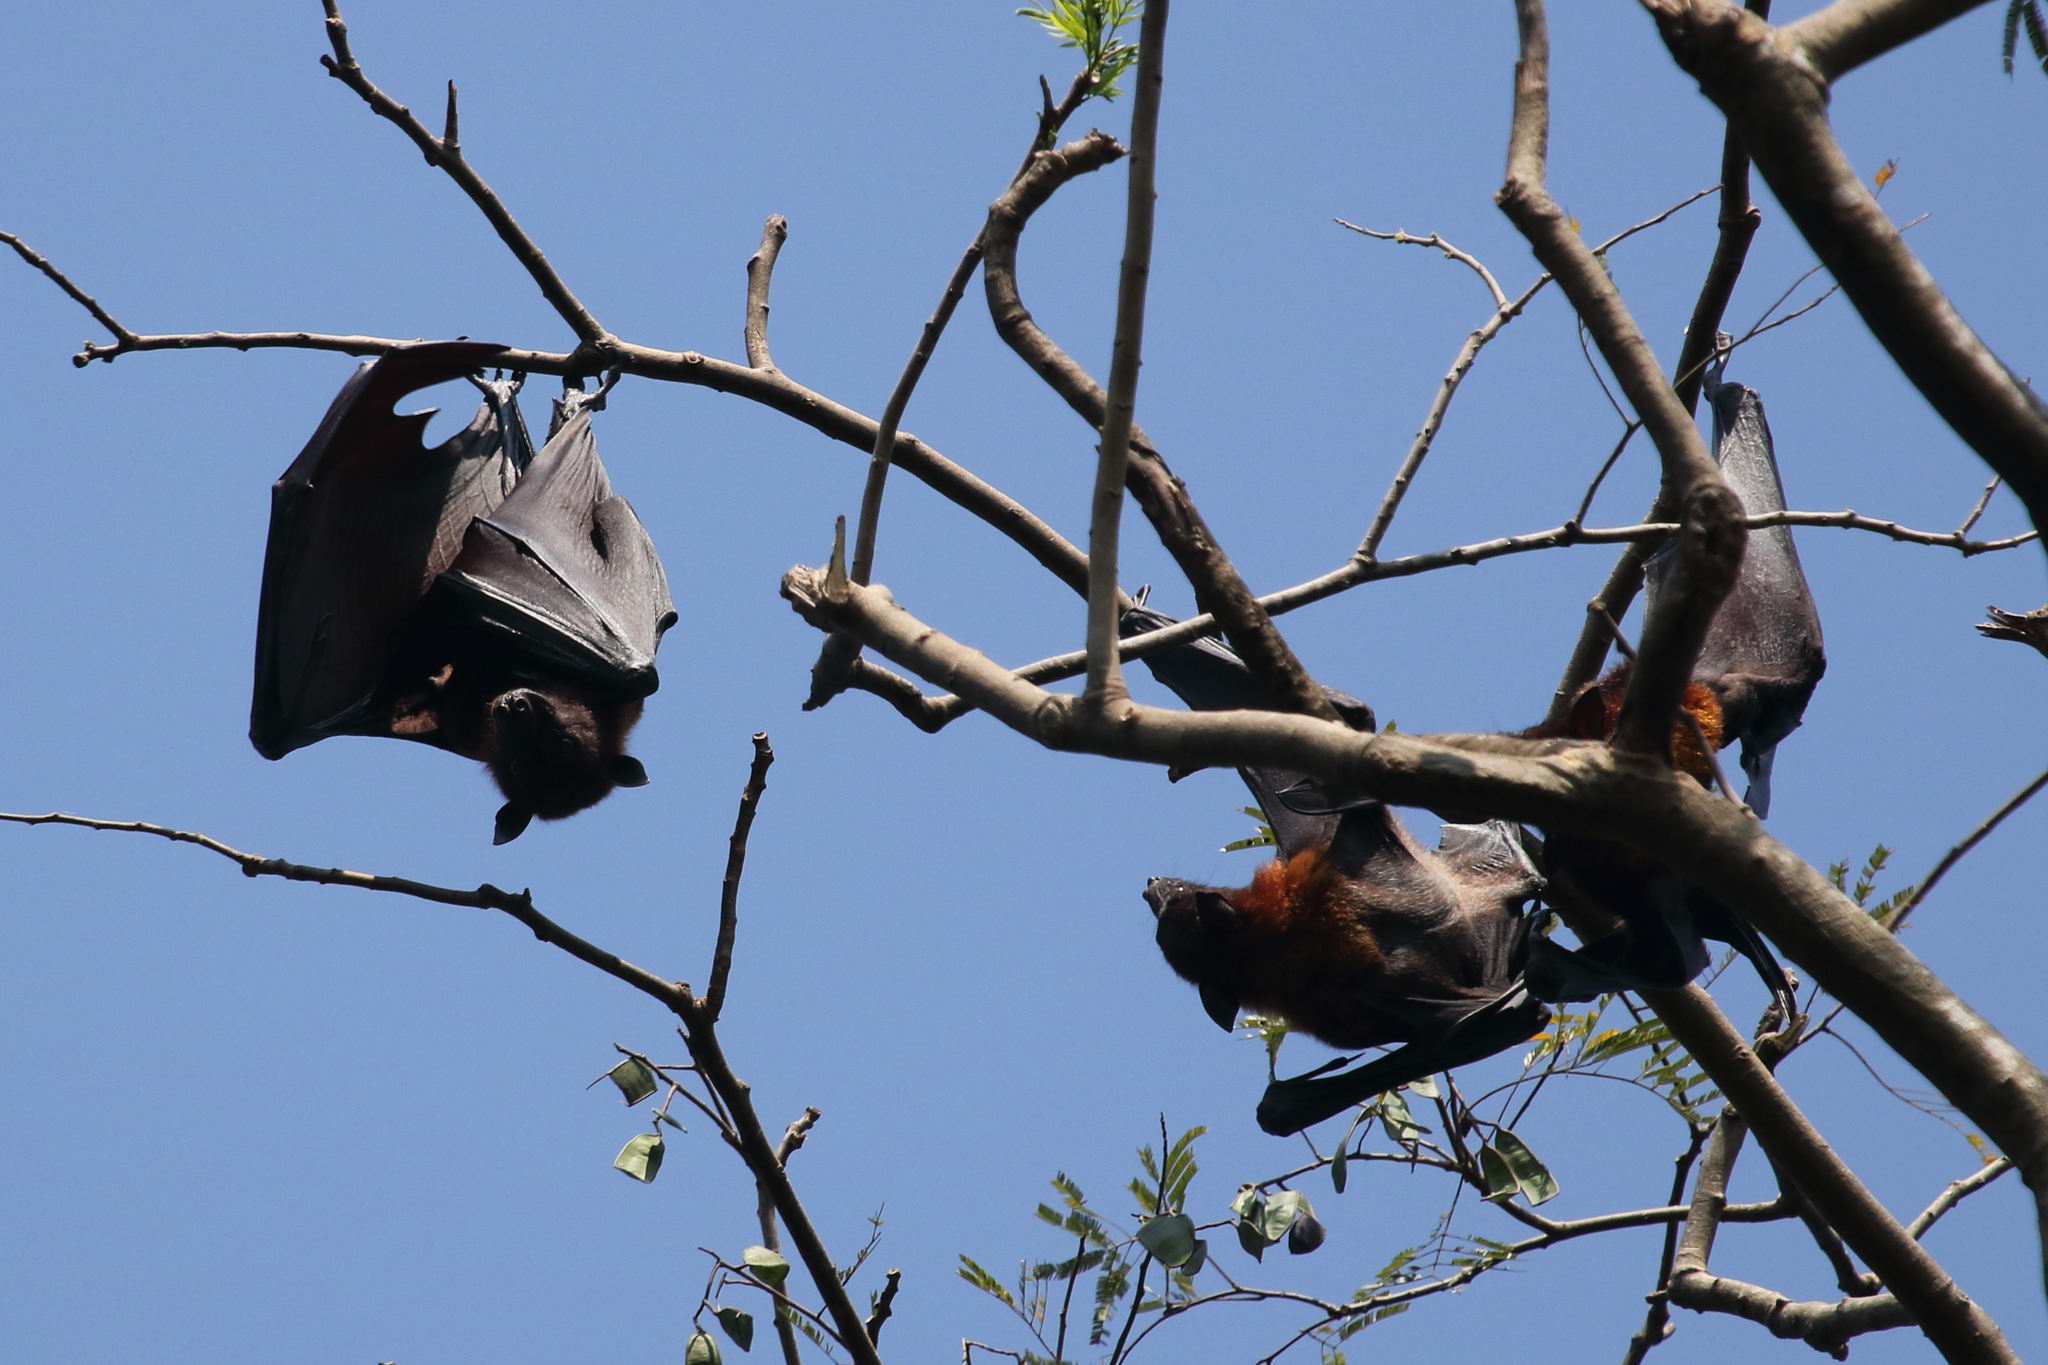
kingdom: Animalia
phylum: Chordata
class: Mammalia
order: Chiroptera
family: Pteropodidae
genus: Pteropus
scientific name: Pteropus vampyrus
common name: Large flying fox
